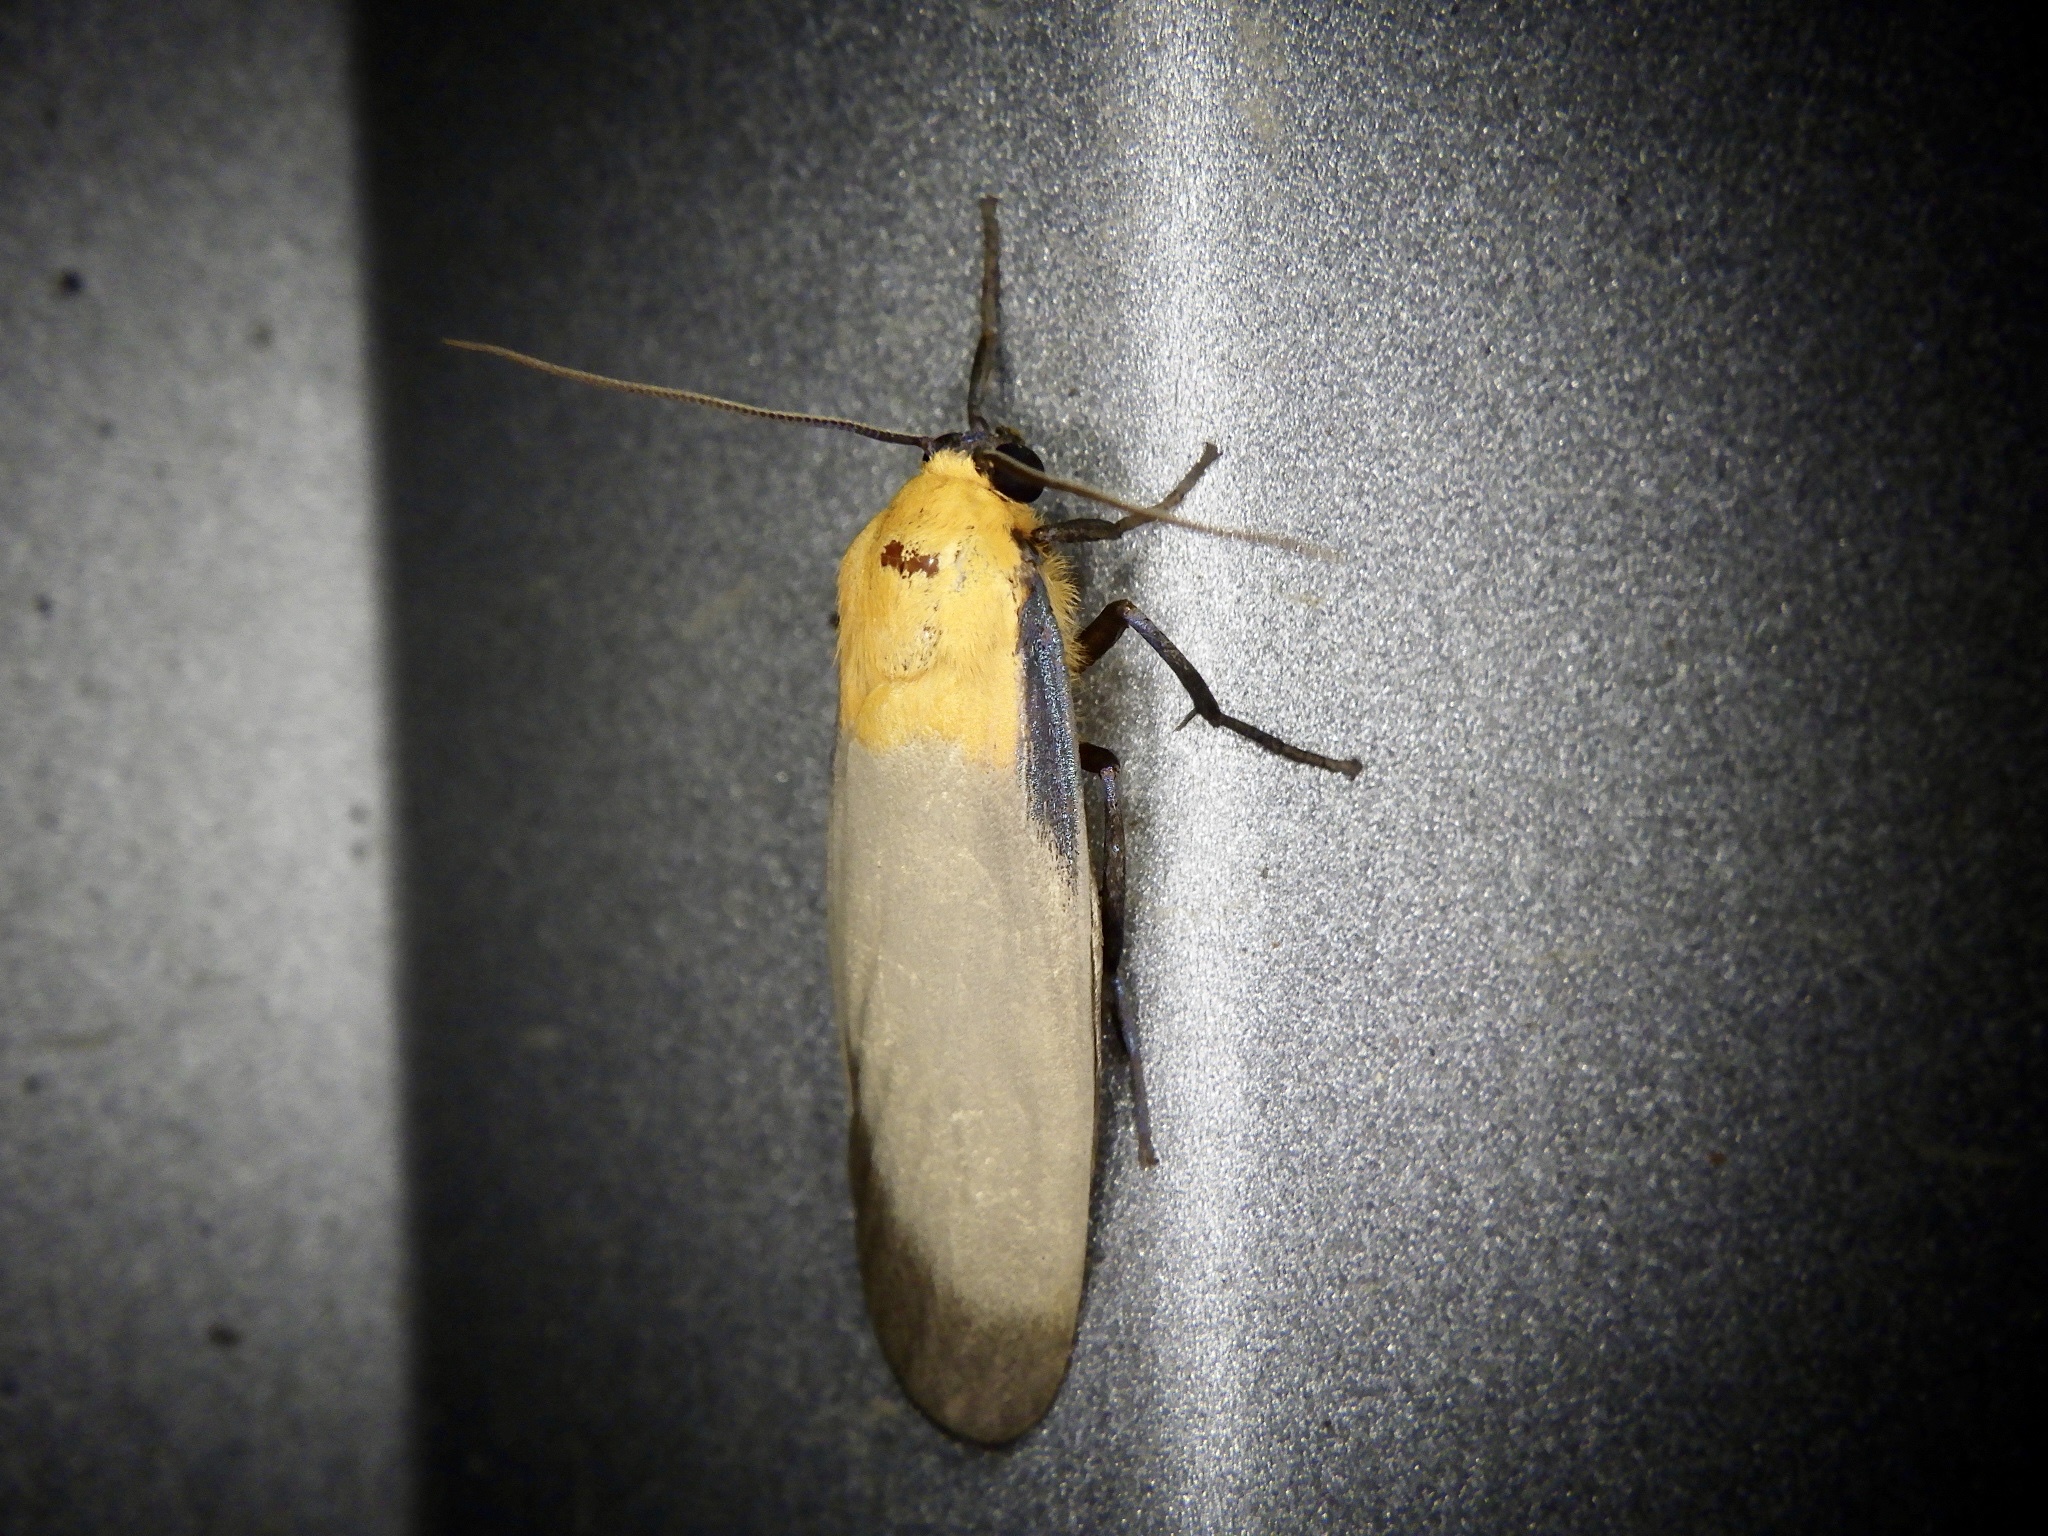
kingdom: Animalia
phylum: Arthropoda
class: Insecta
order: Lepidoptera
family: Erebidae
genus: Lithosia
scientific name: Lithosia quadra
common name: Four-spotted footman
